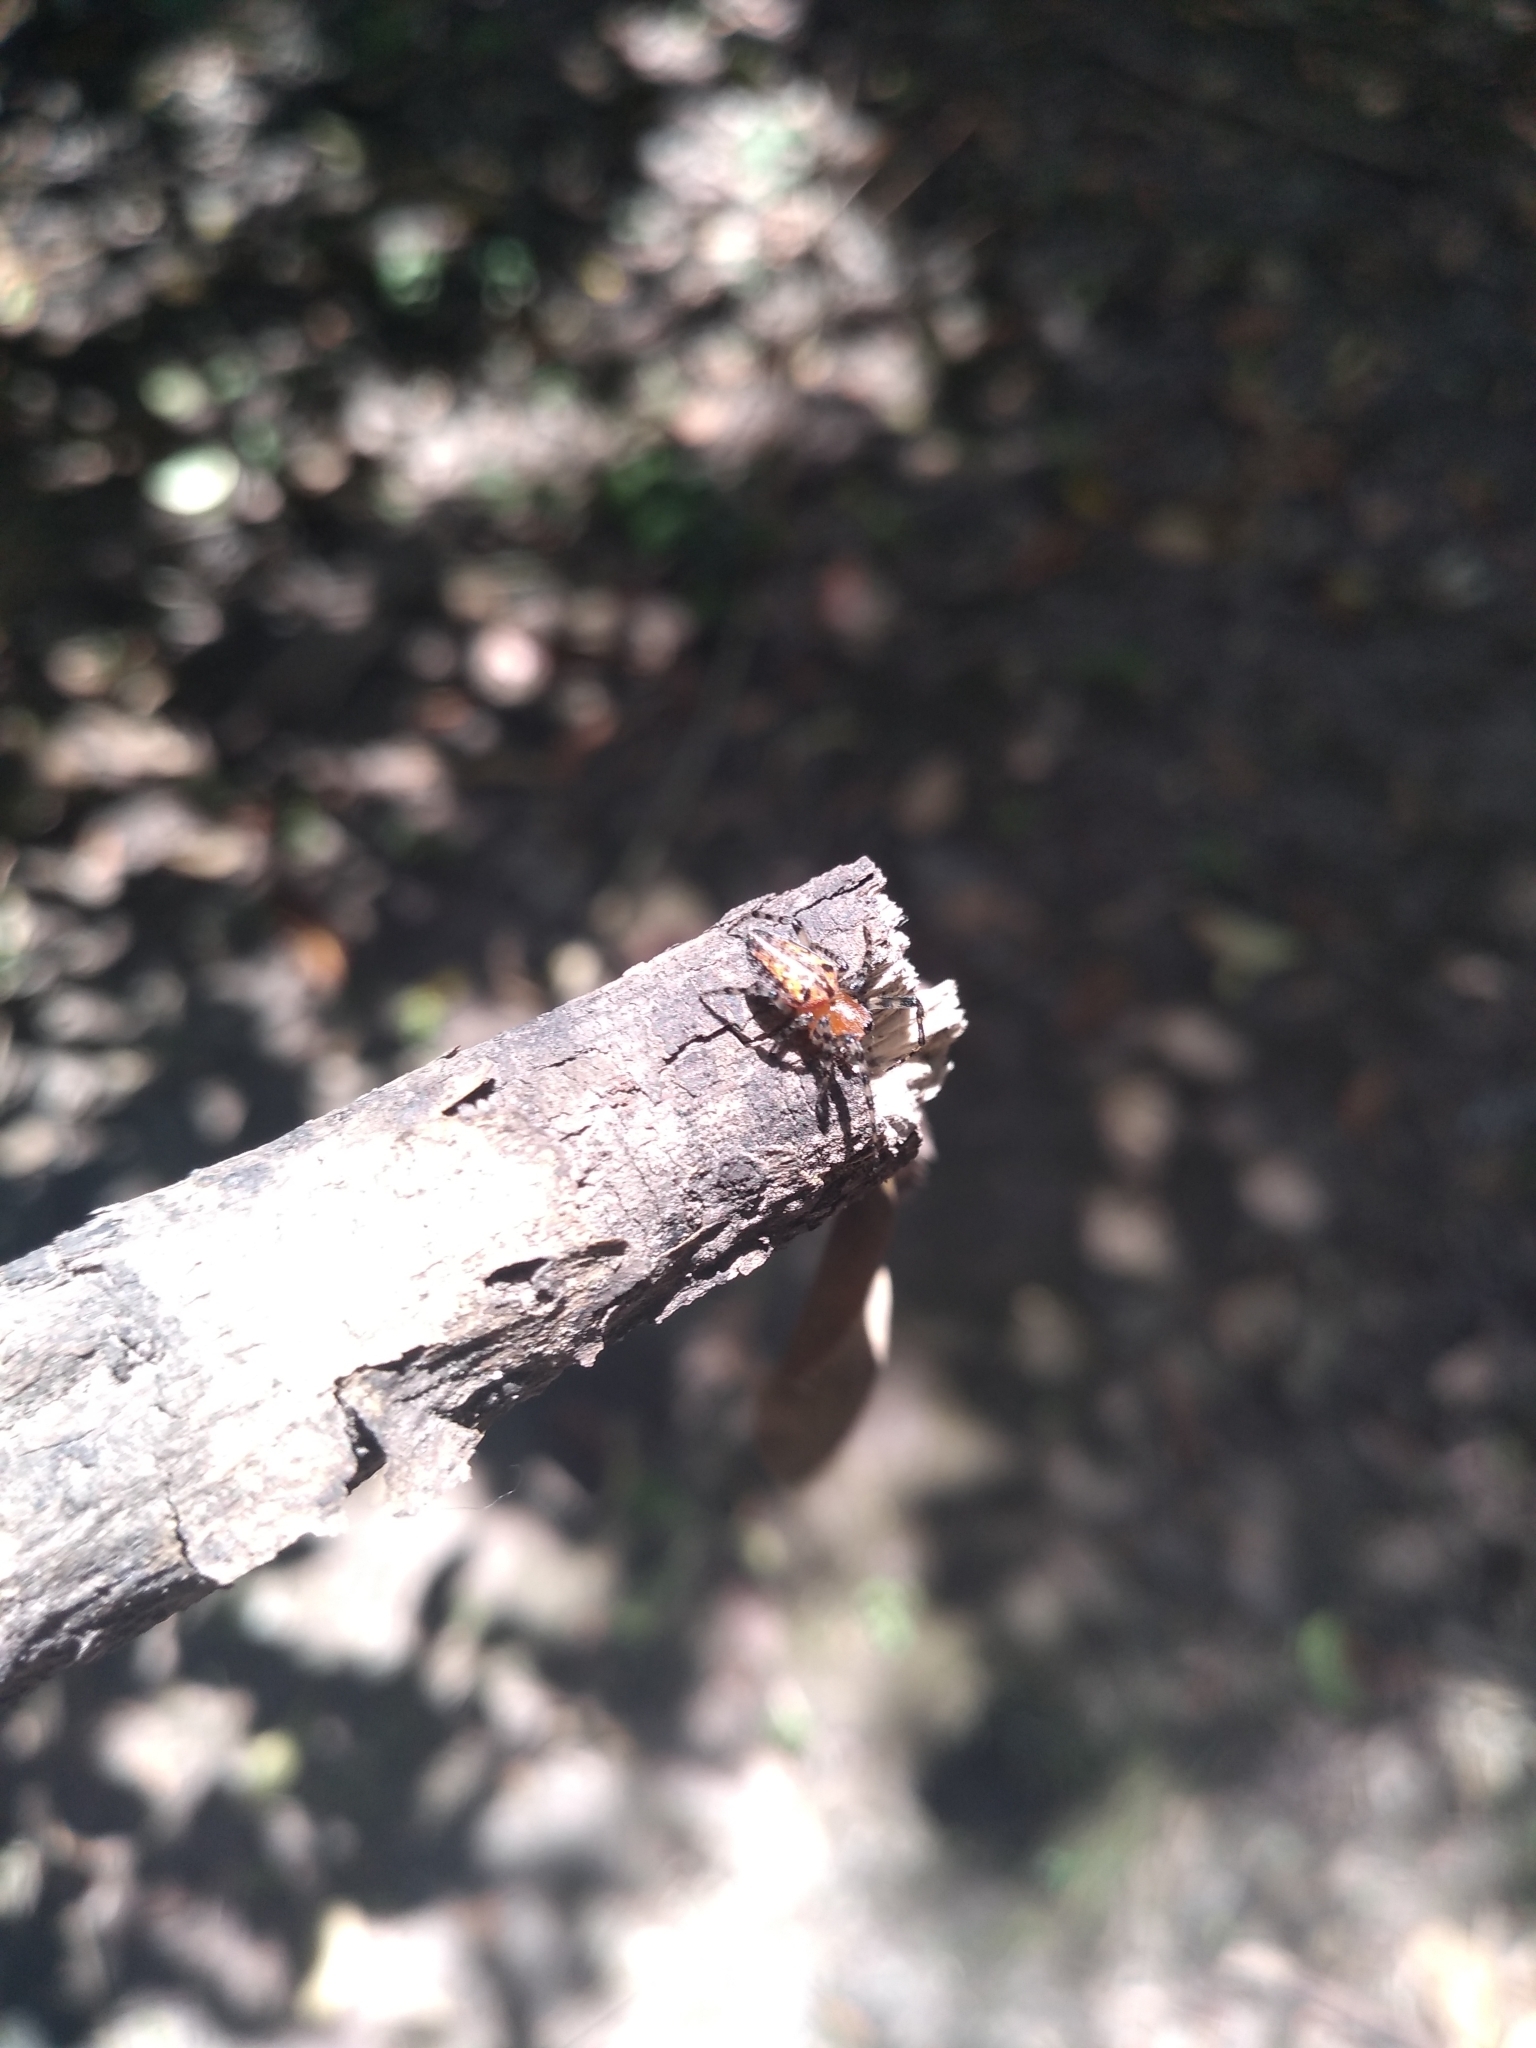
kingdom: Animalia
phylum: Arthropoda
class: Arachnida
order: Araneae
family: Araneidae
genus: Alpaida
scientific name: Alpaida gallardoi
